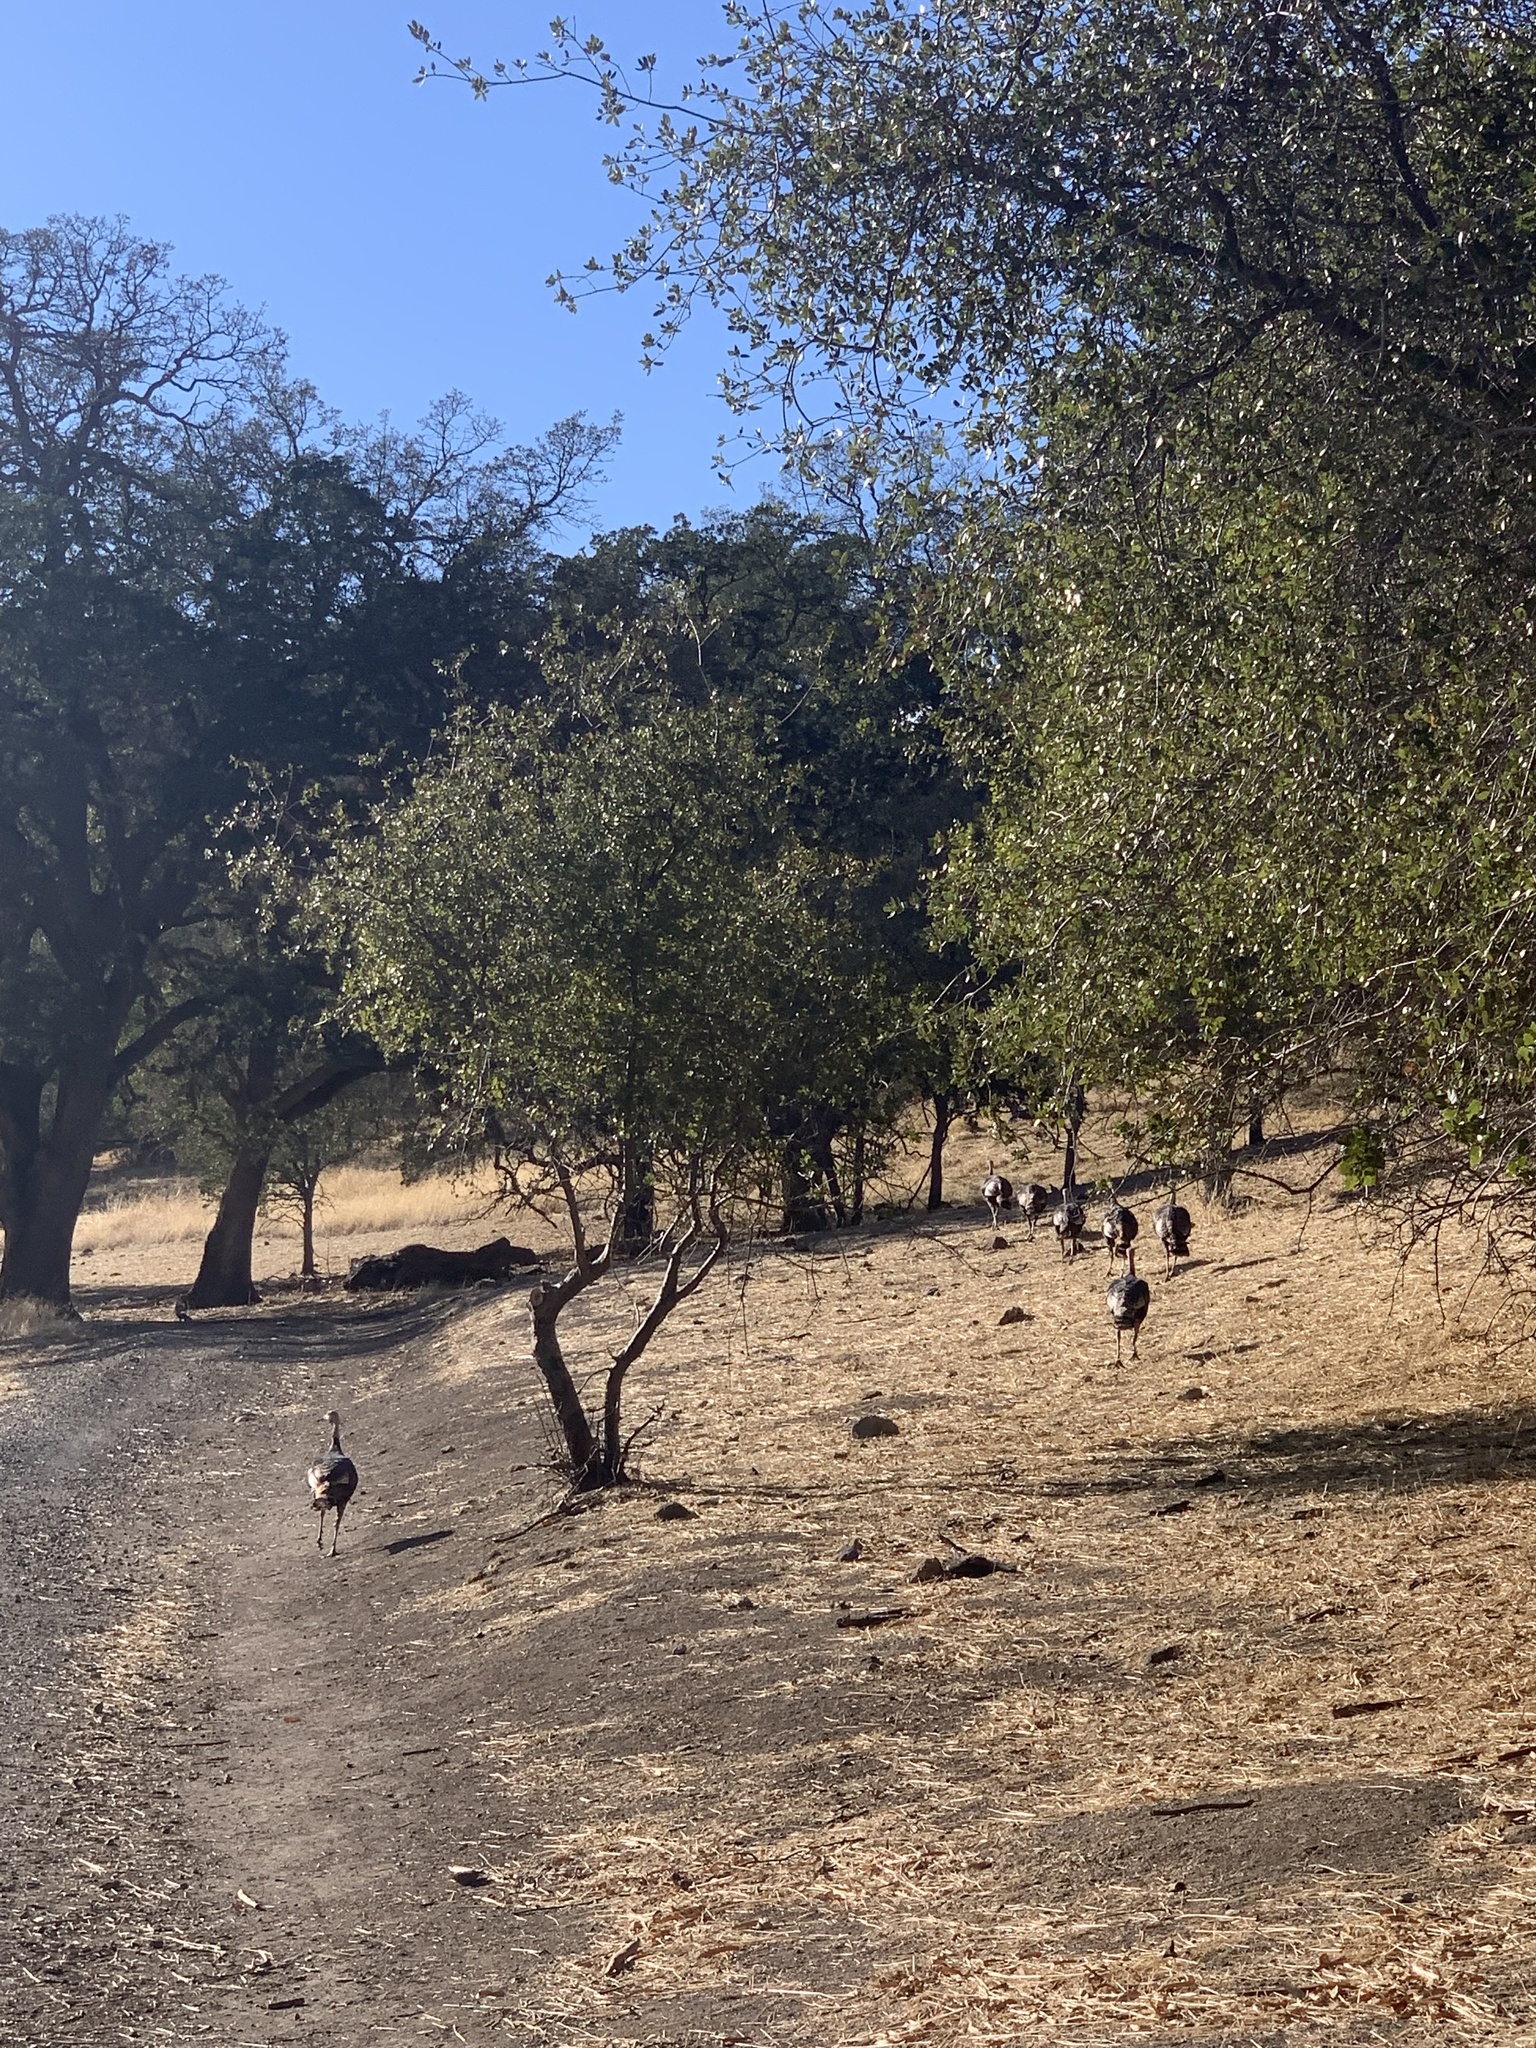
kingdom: Animalia
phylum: Chordata
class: Aves
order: Galliformes
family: Phasianidae
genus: Meleagris
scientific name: Meleagris gallopavo
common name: Wild turkey
